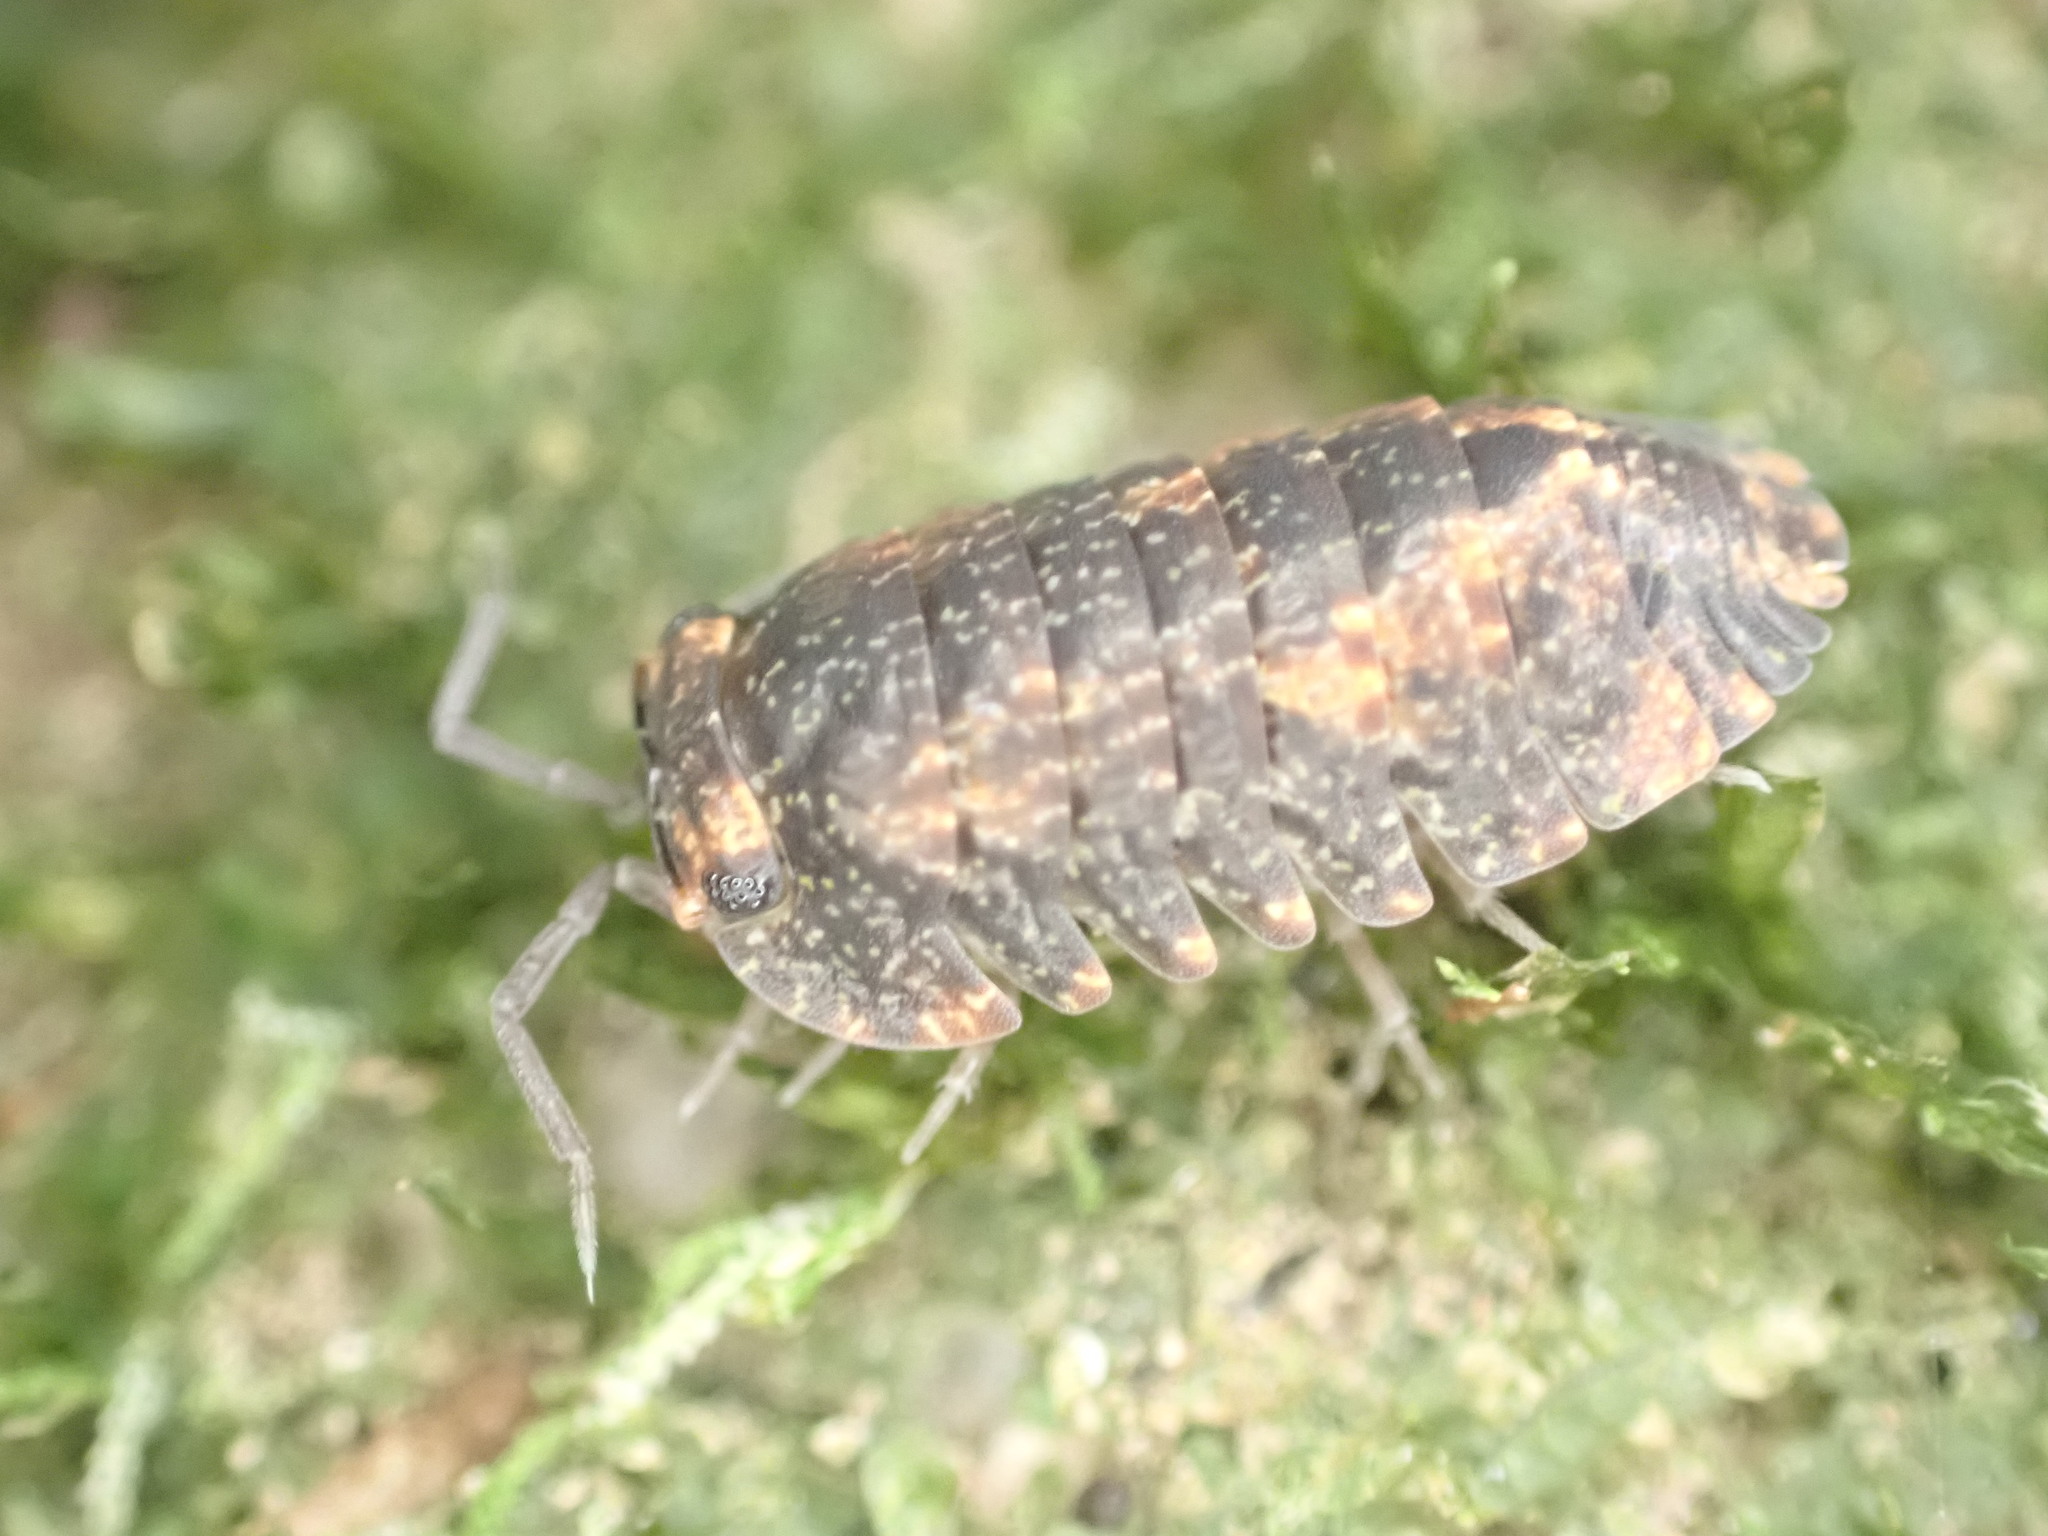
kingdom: Animalia
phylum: Arthropoda
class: Malacostraca
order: Isopoda
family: Armadillidae
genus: Cubaris
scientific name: Cubaris tarangensis
